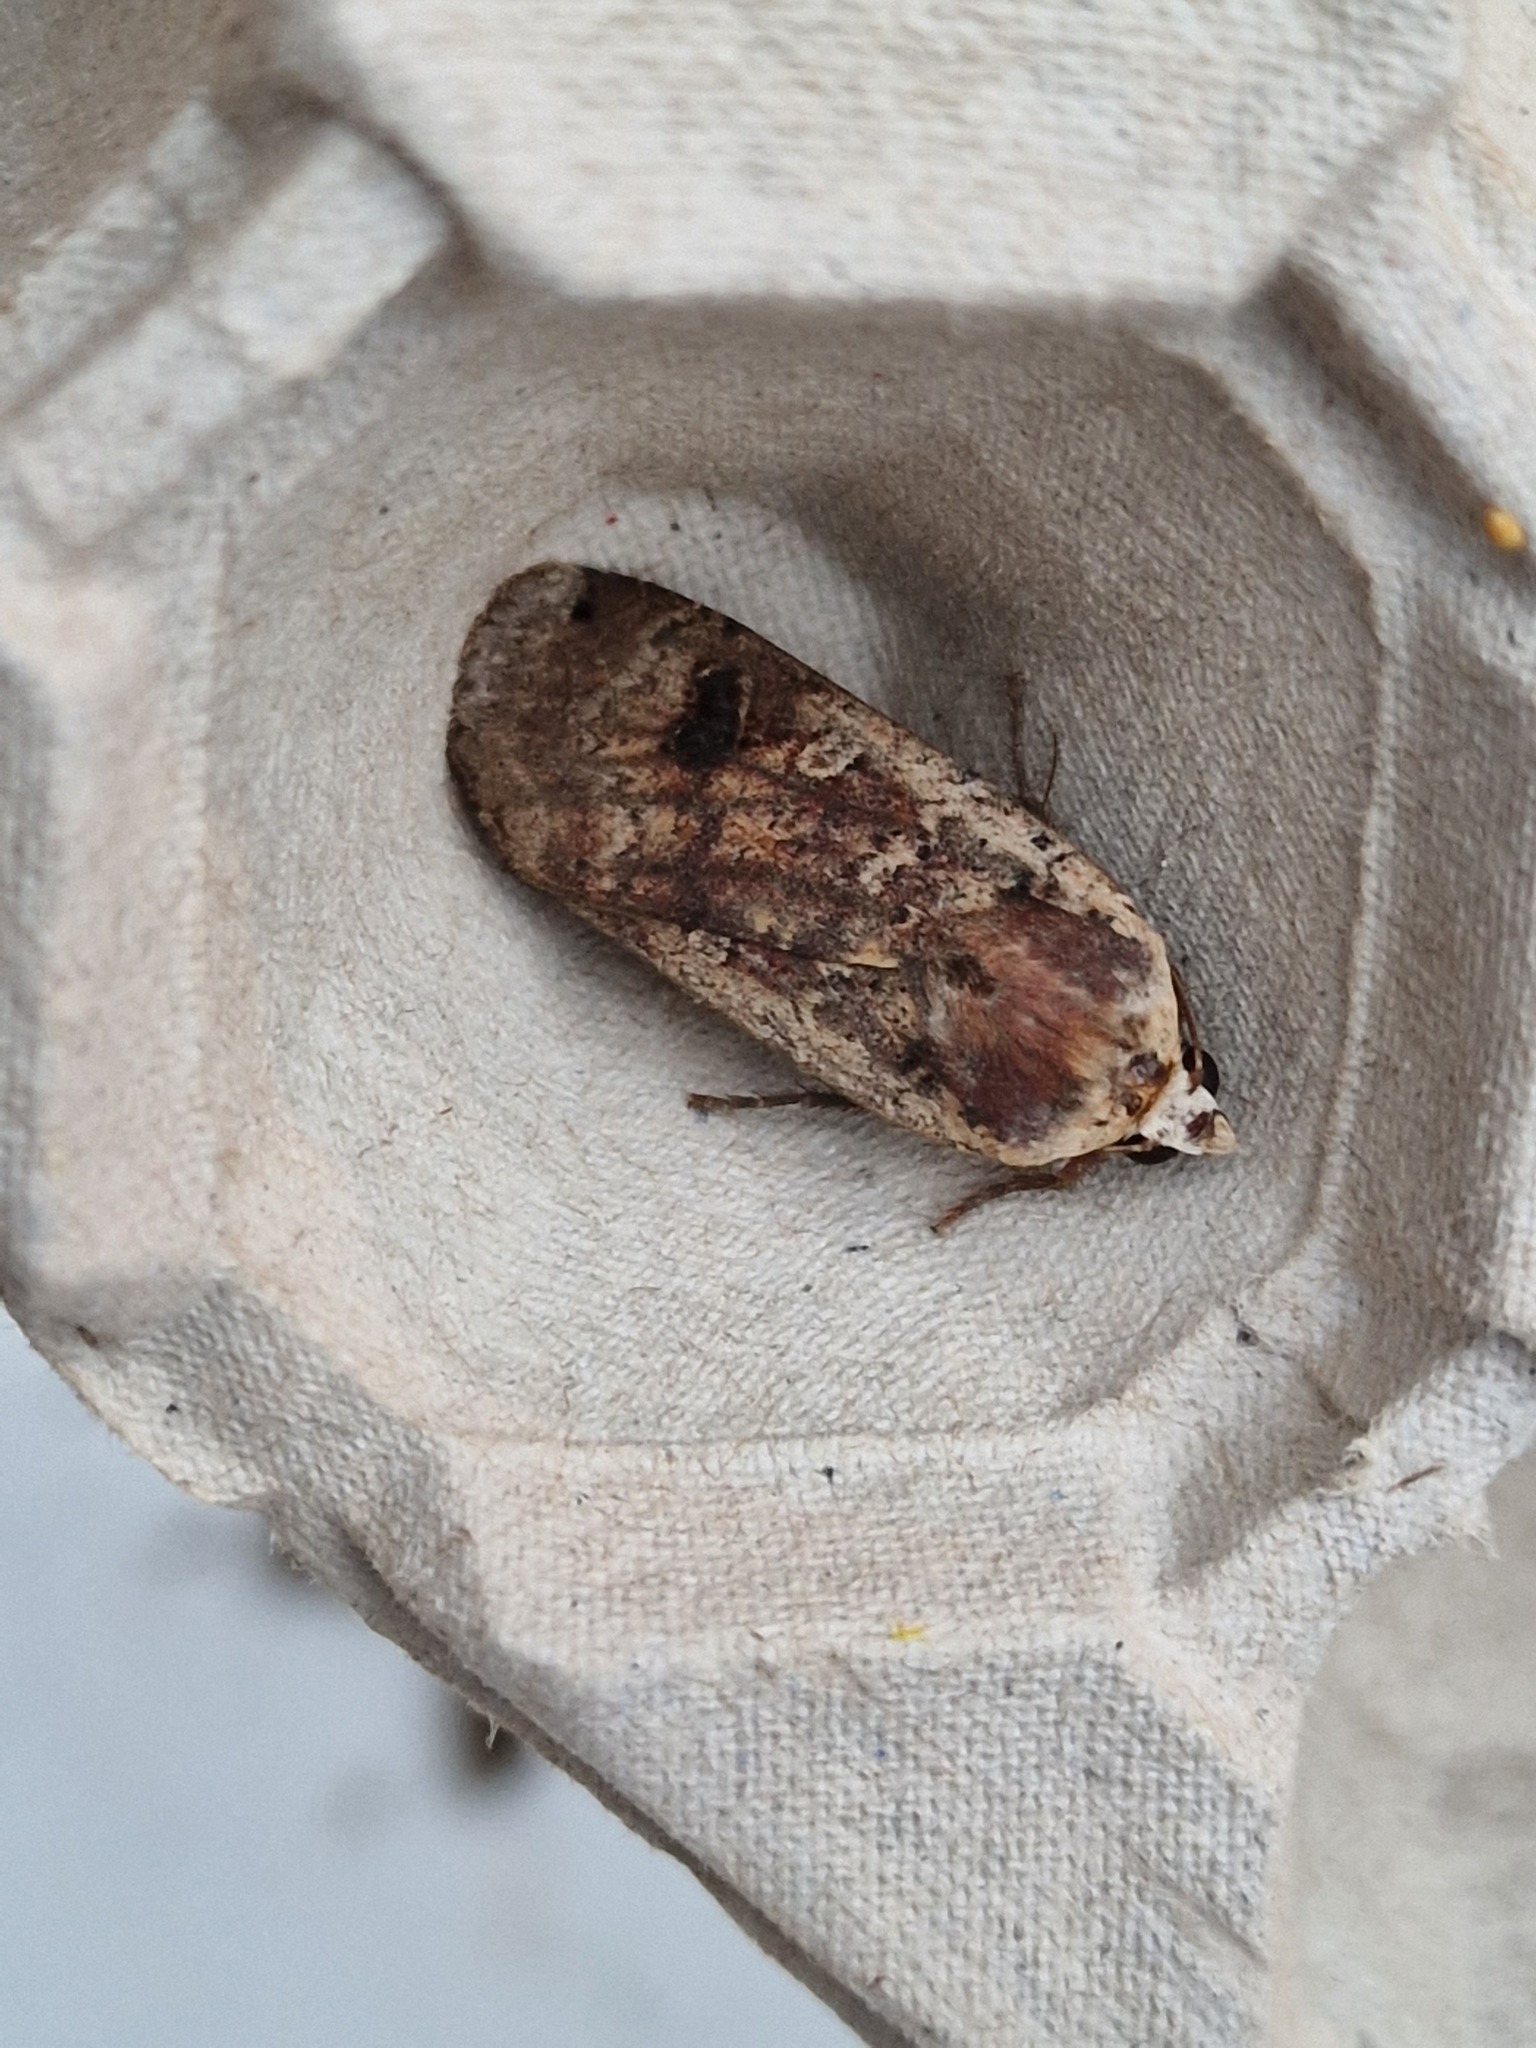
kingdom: Animalia
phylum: Arthropoda
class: Insecta
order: Lepidoptera
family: Noctuidae
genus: Noctua
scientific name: Noctua pronuba
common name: Large yellow underwing
